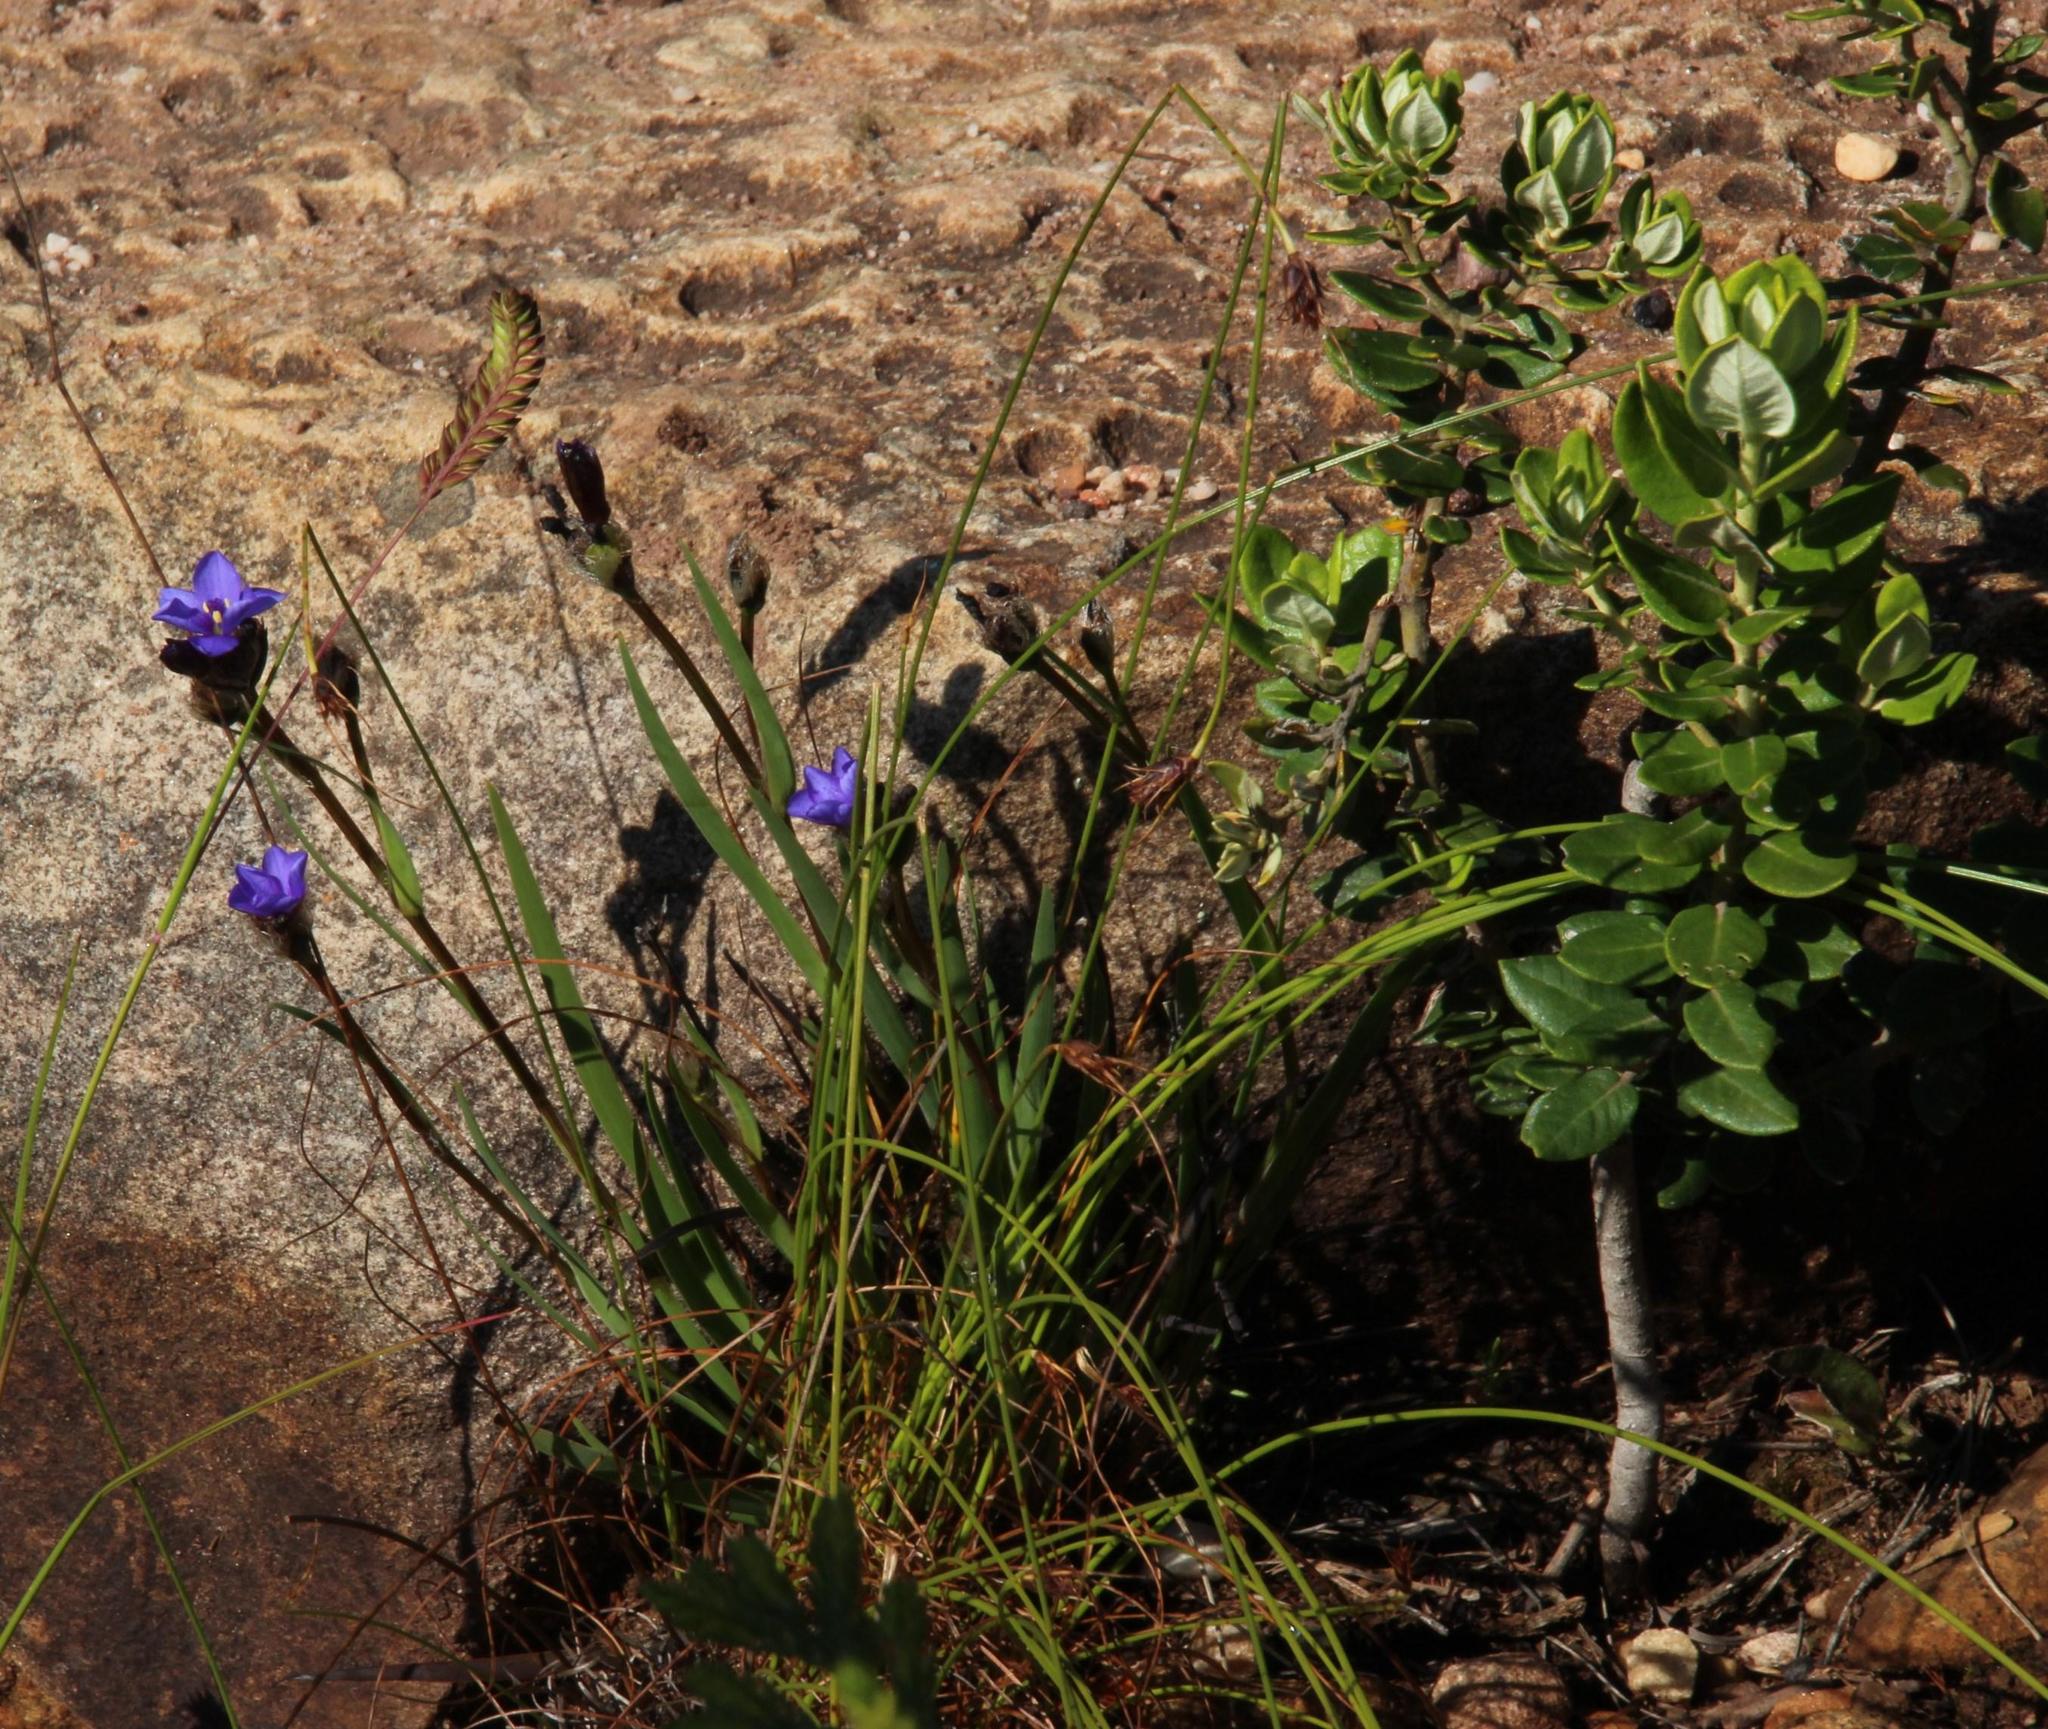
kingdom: Plantae
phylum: Tracheophyta
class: Liliopsida
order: Asparagales
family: Iridaceae
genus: Aristea
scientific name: Aristea africana
